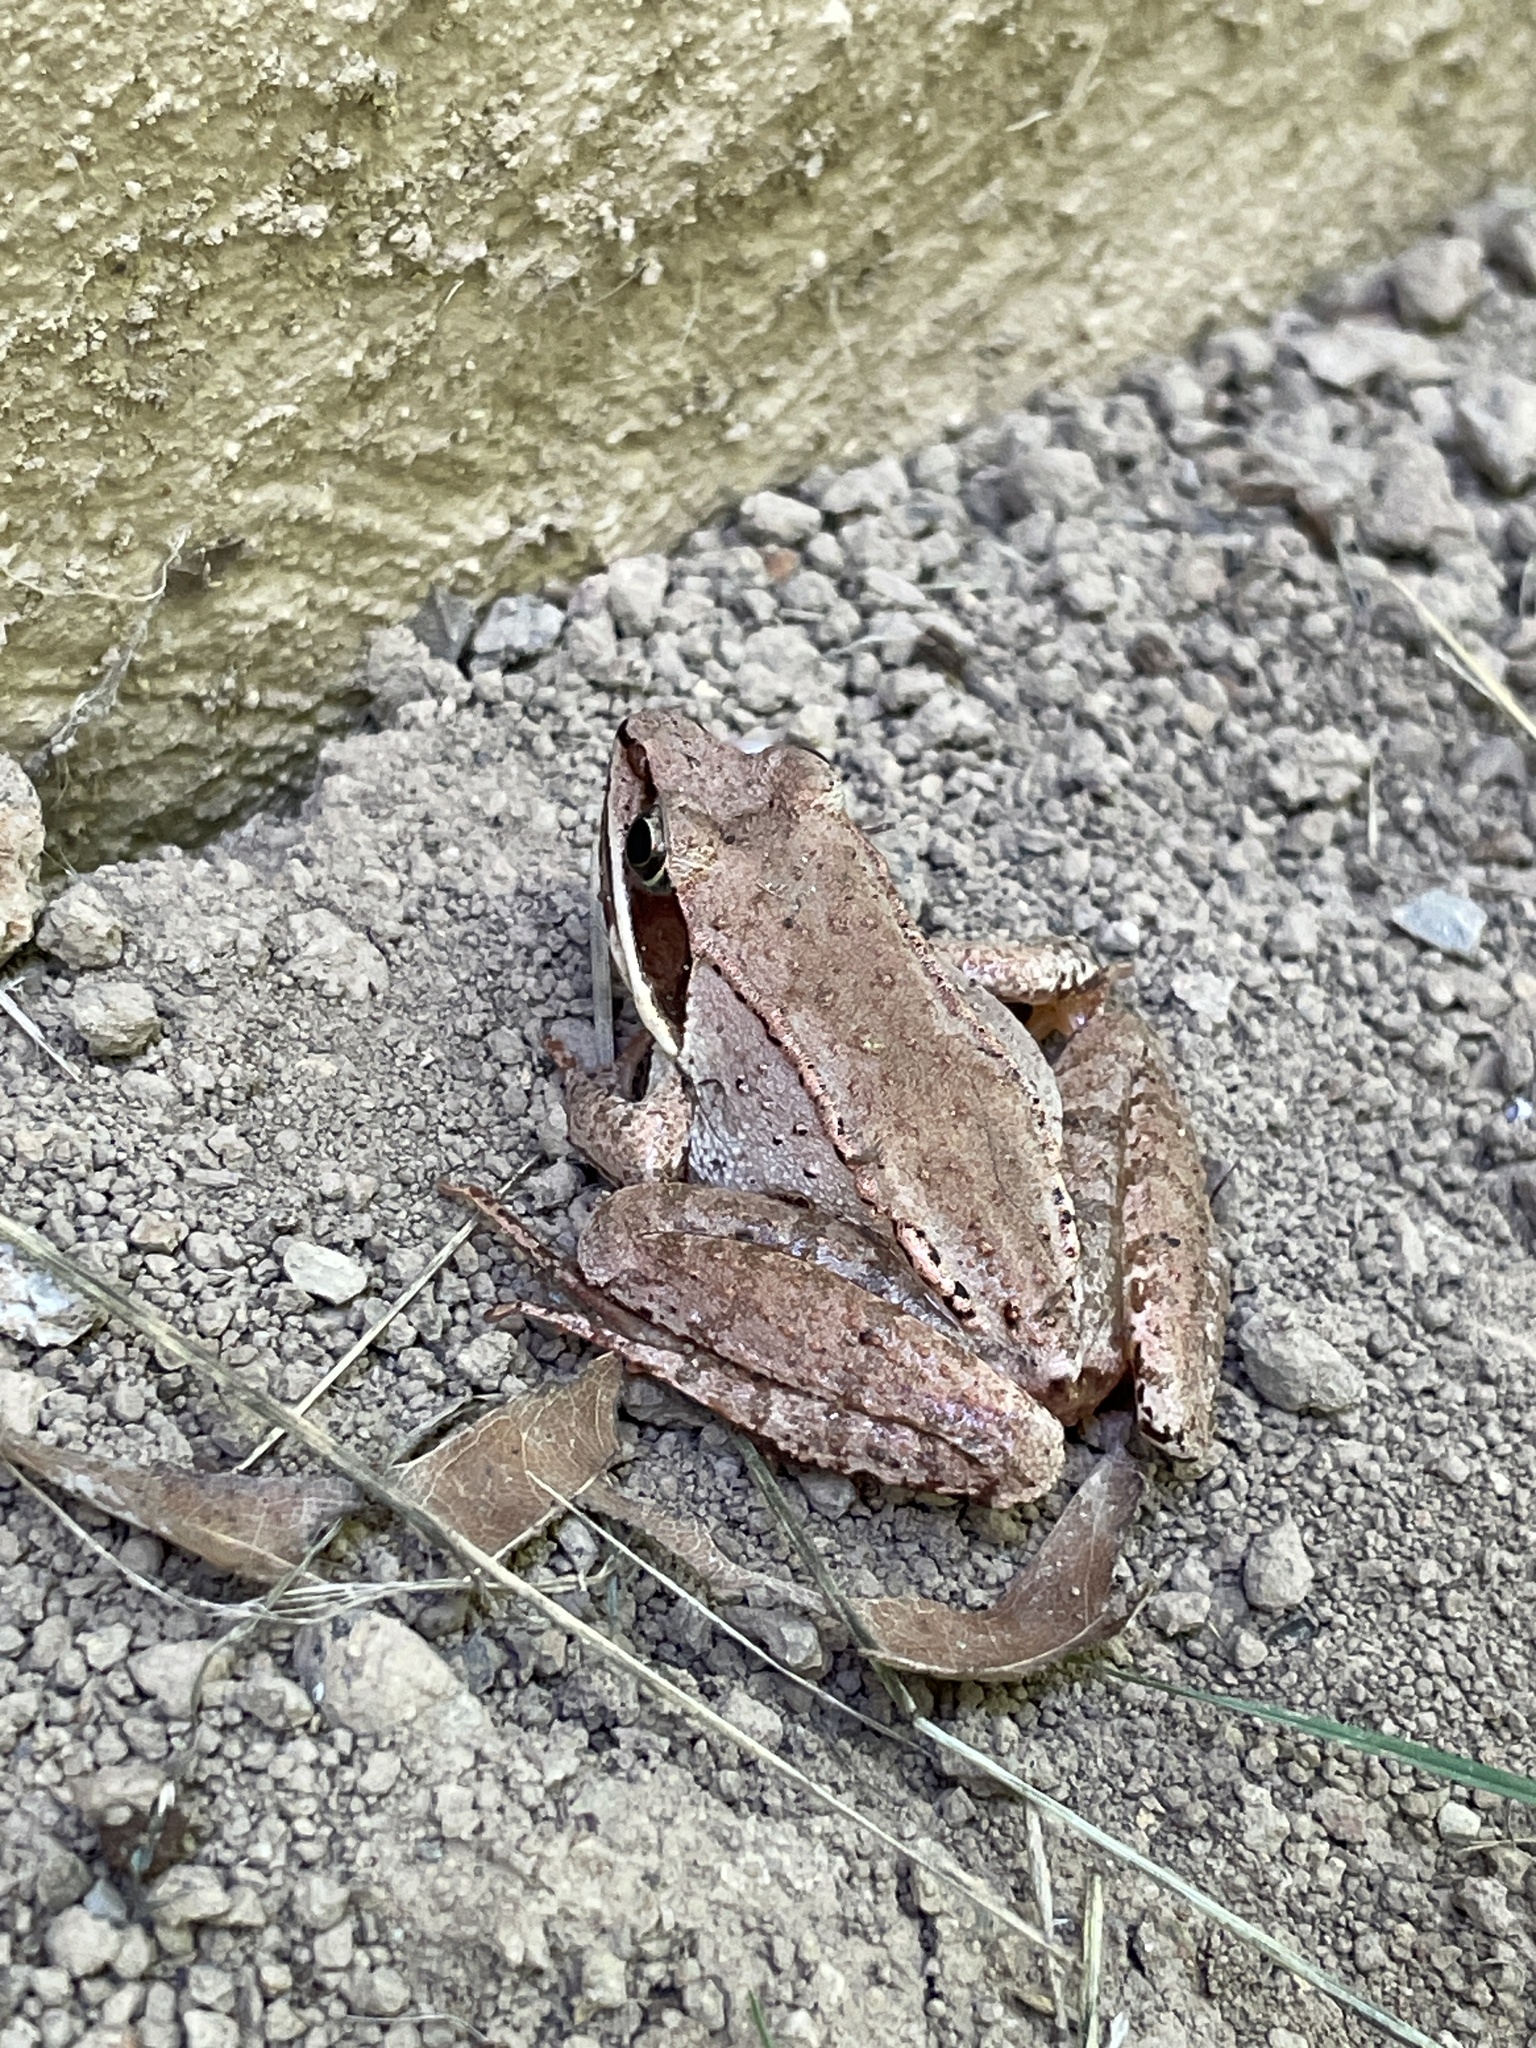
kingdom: Animalia
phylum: Chordata
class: Amphibia
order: Anura
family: Ranidae
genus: Lithobates
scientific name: Lithobates sylvaticus
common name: Wood frog
